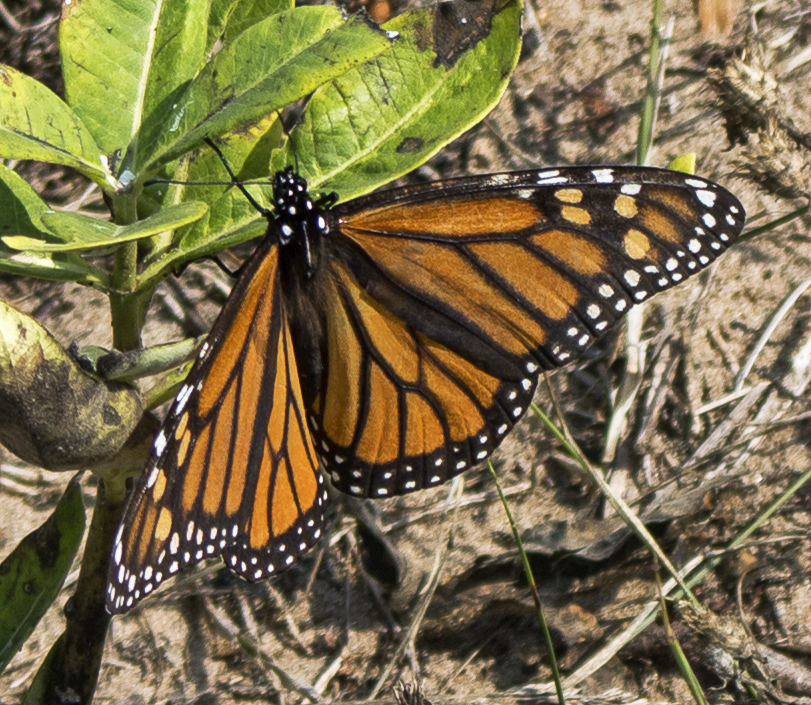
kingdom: Animalia
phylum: Arthropoda
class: Insecta
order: Lepidoptera
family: Nymphalidae
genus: Danaus
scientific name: Danaus plexippus
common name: Monarch
